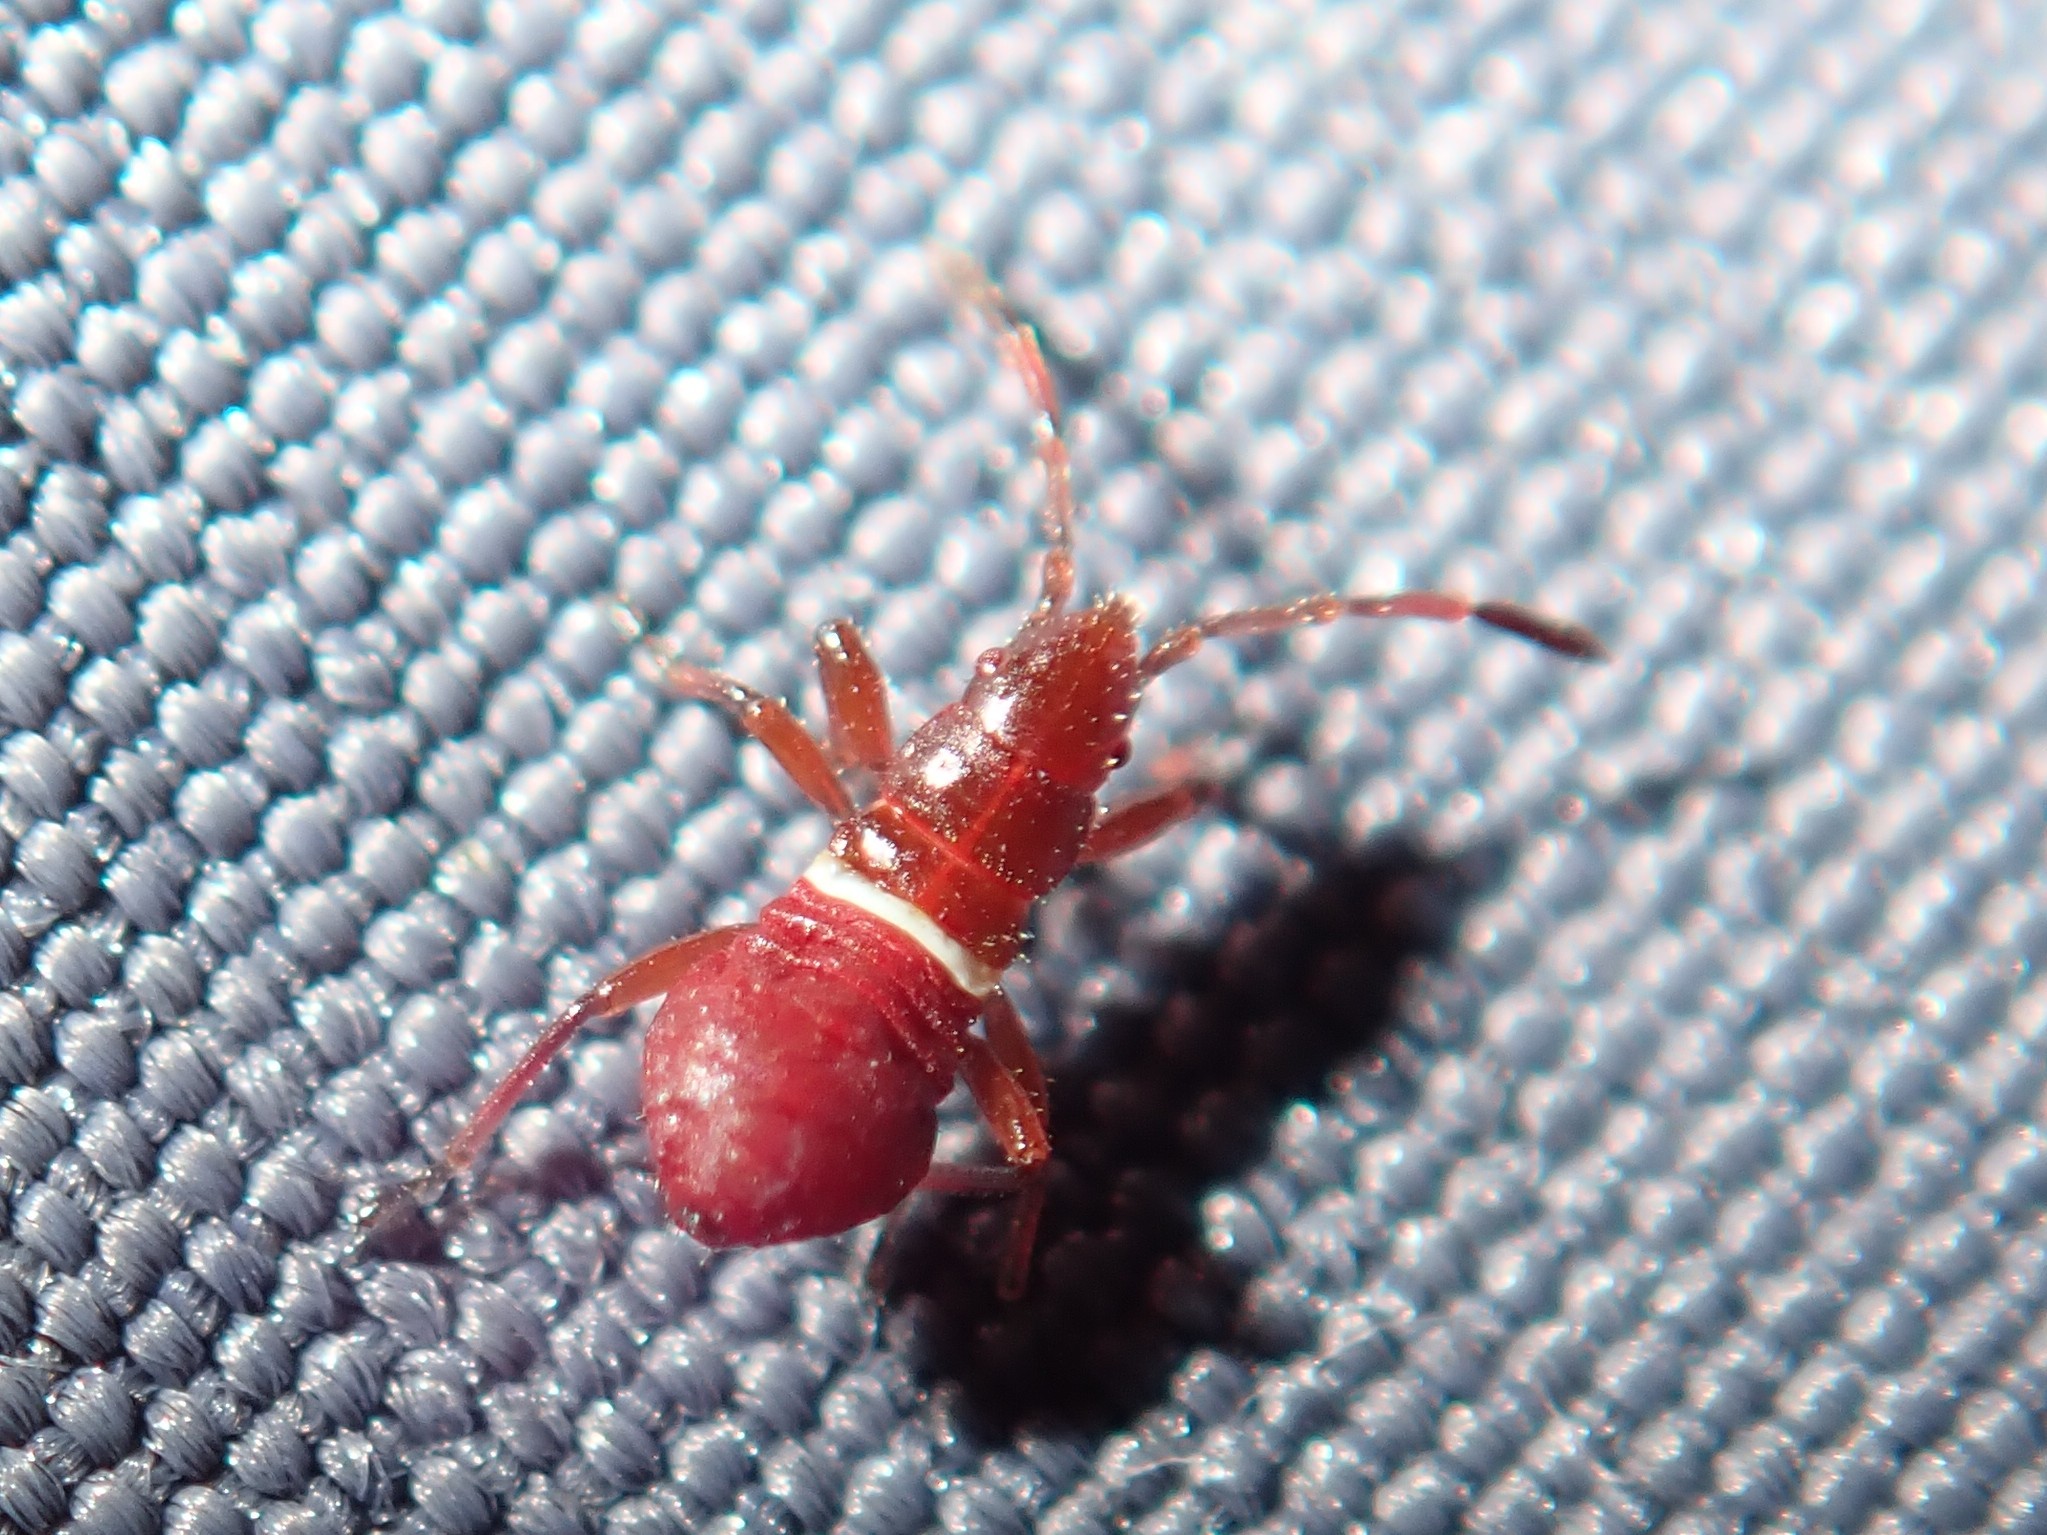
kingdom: Animalia
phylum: Arthropoda
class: Insecta
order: Hemiptera
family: Oxycarenidae
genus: Oxycarenus
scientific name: Oxycarenus lavaterae
